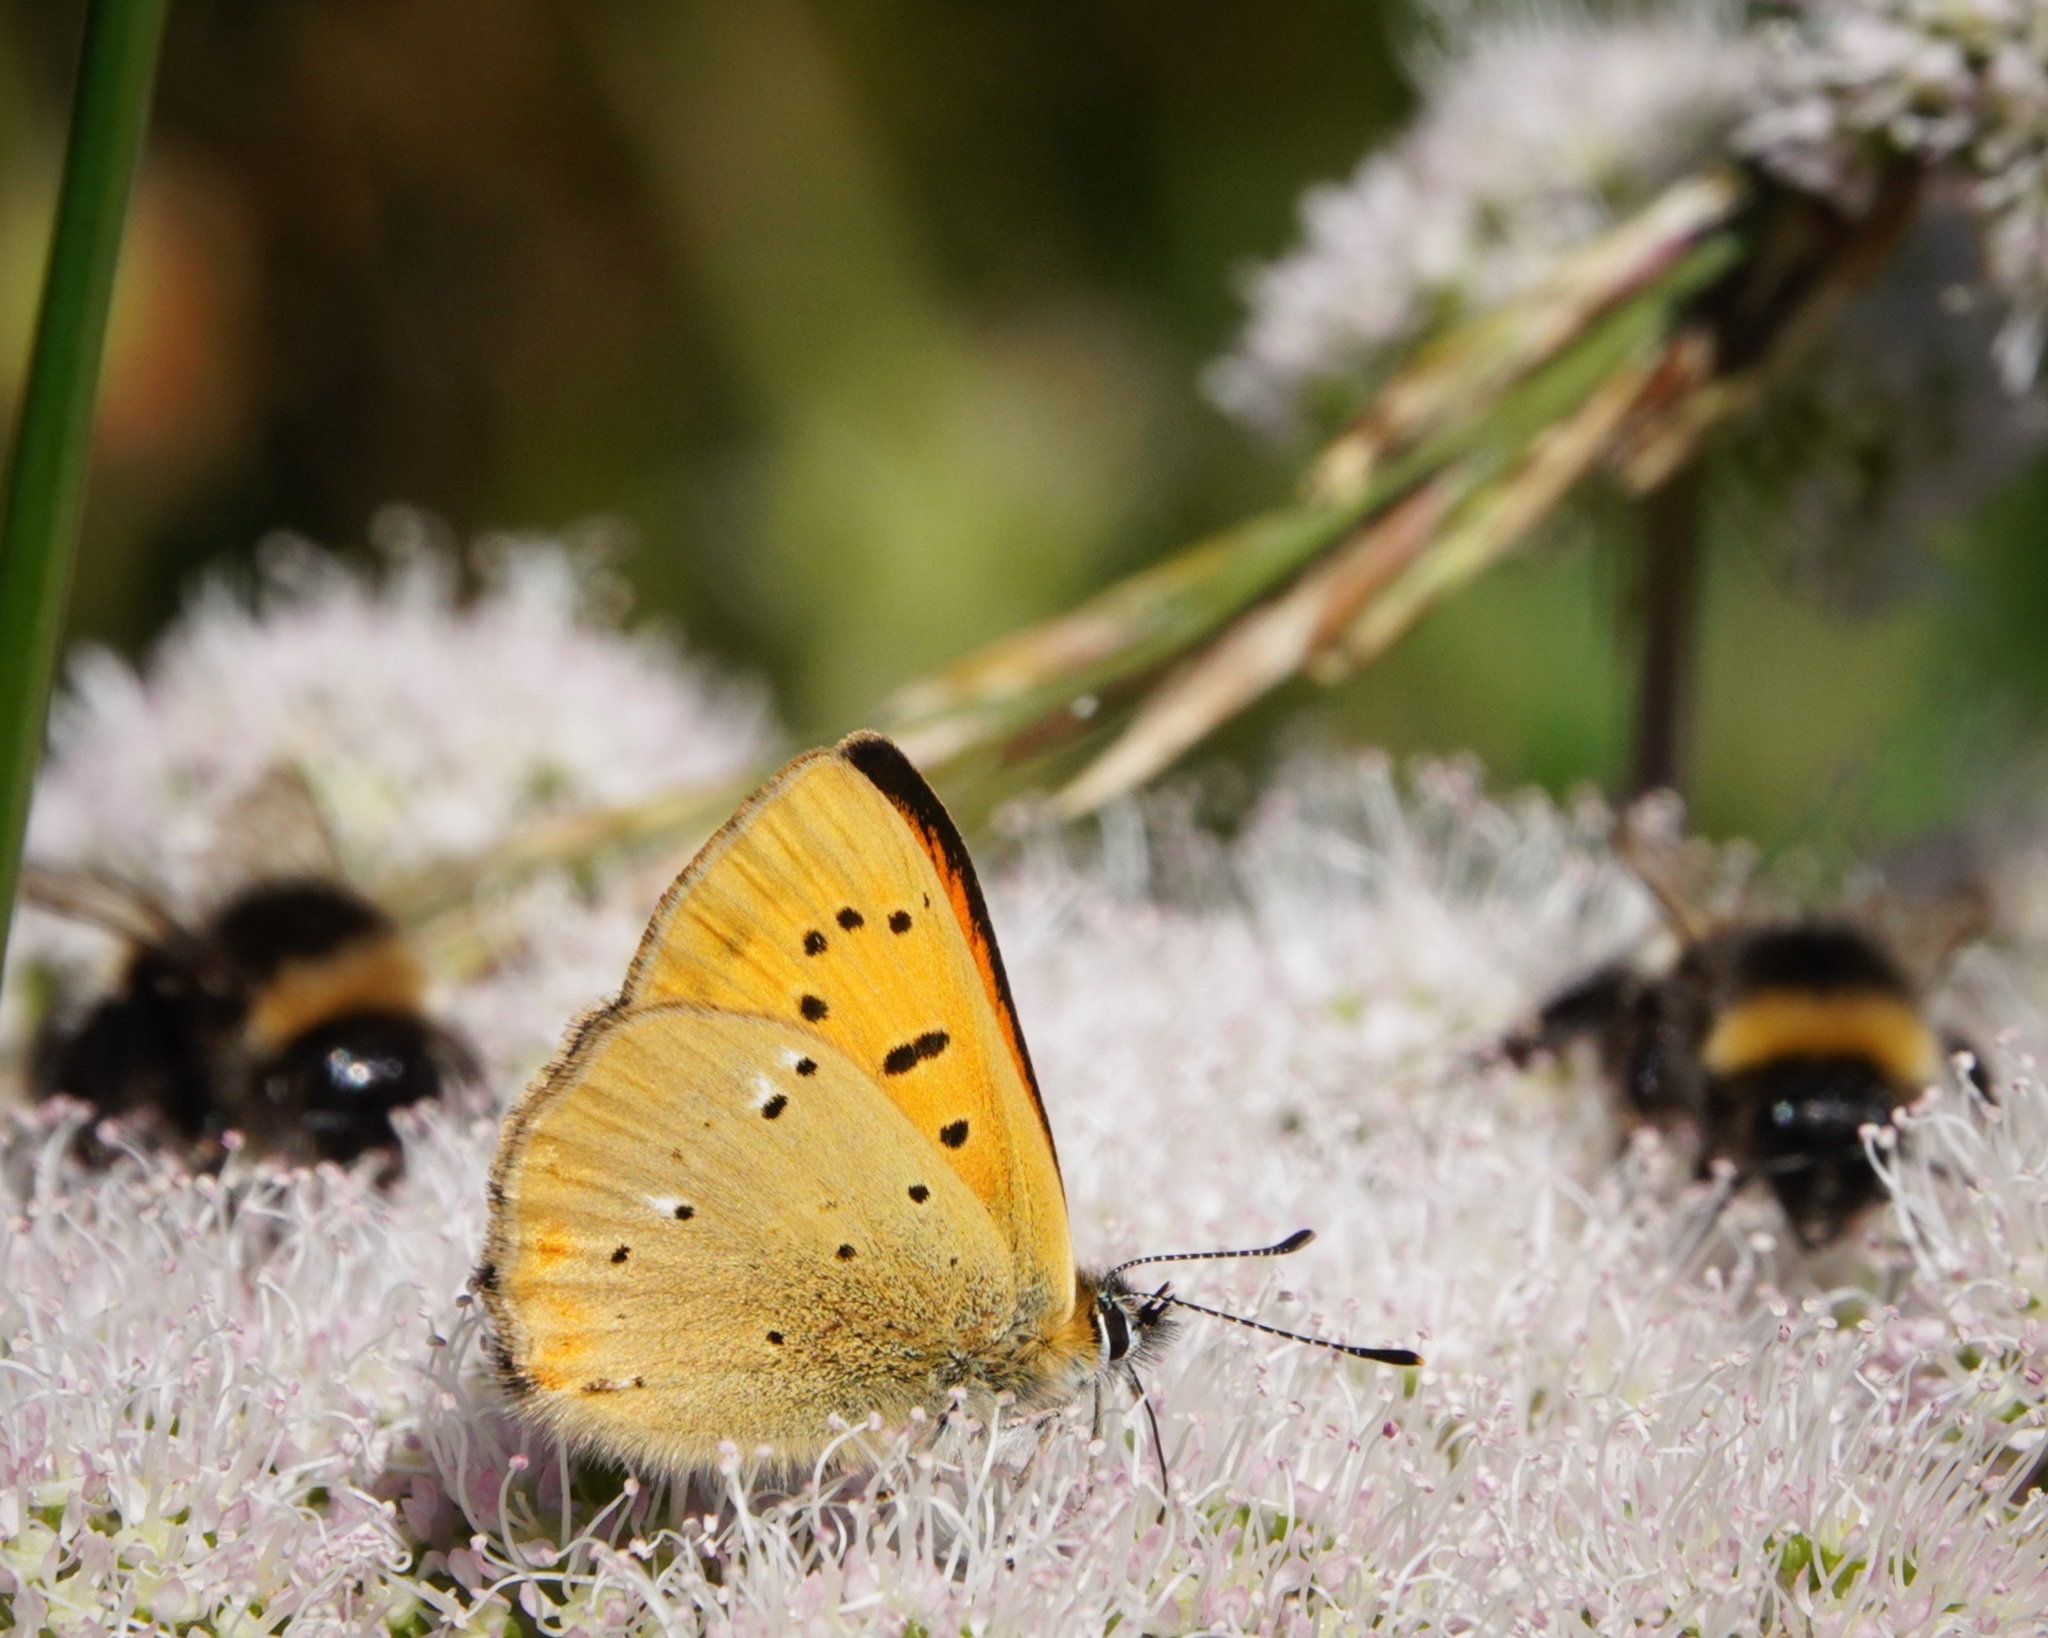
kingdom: Animalia
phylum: Arthropoda
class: Insecta
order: Lepidoptera
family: Lycaenidae
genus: Lycaena
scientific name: Lycaena virgaureae
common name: Scarce copper
